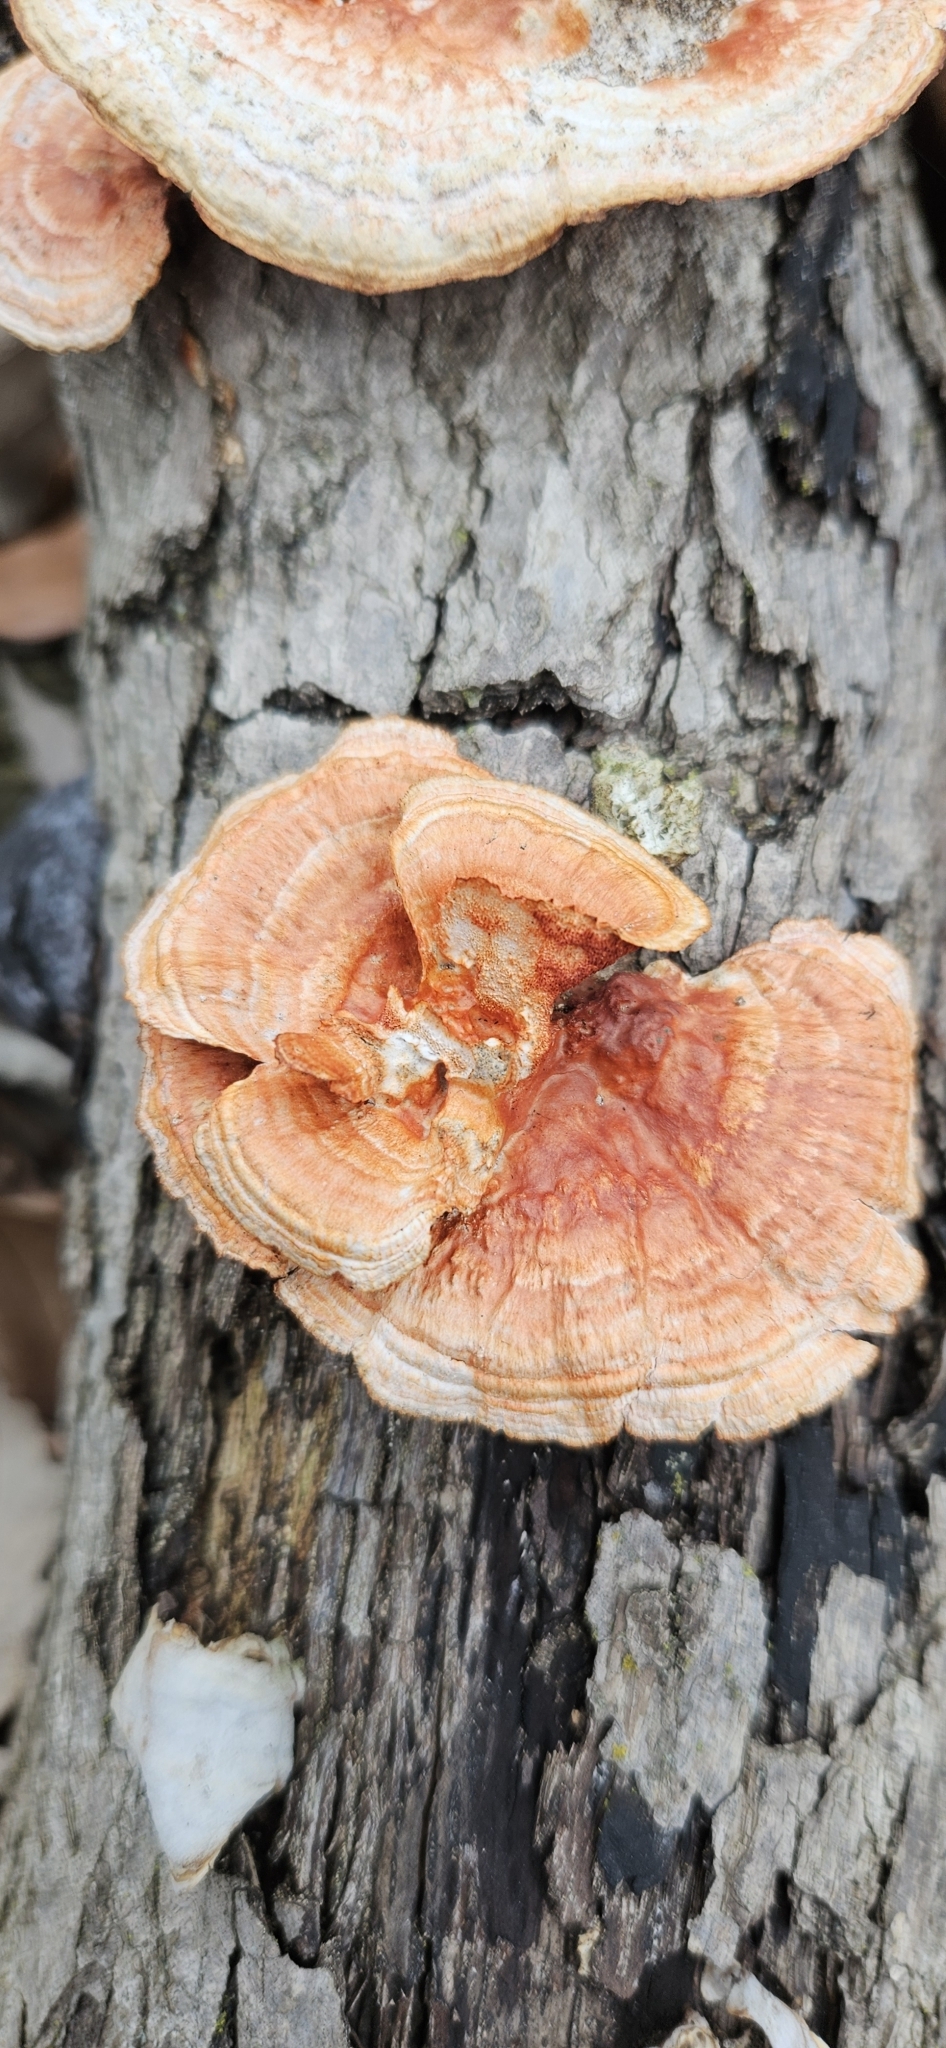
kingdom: Fungi
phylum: Basidiomycota
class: Agaricomycetes
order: Polyporales
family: Polyporaceae
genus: Trametes
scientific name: Trametes cinnabarina
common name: Northern cinnabar polypore
